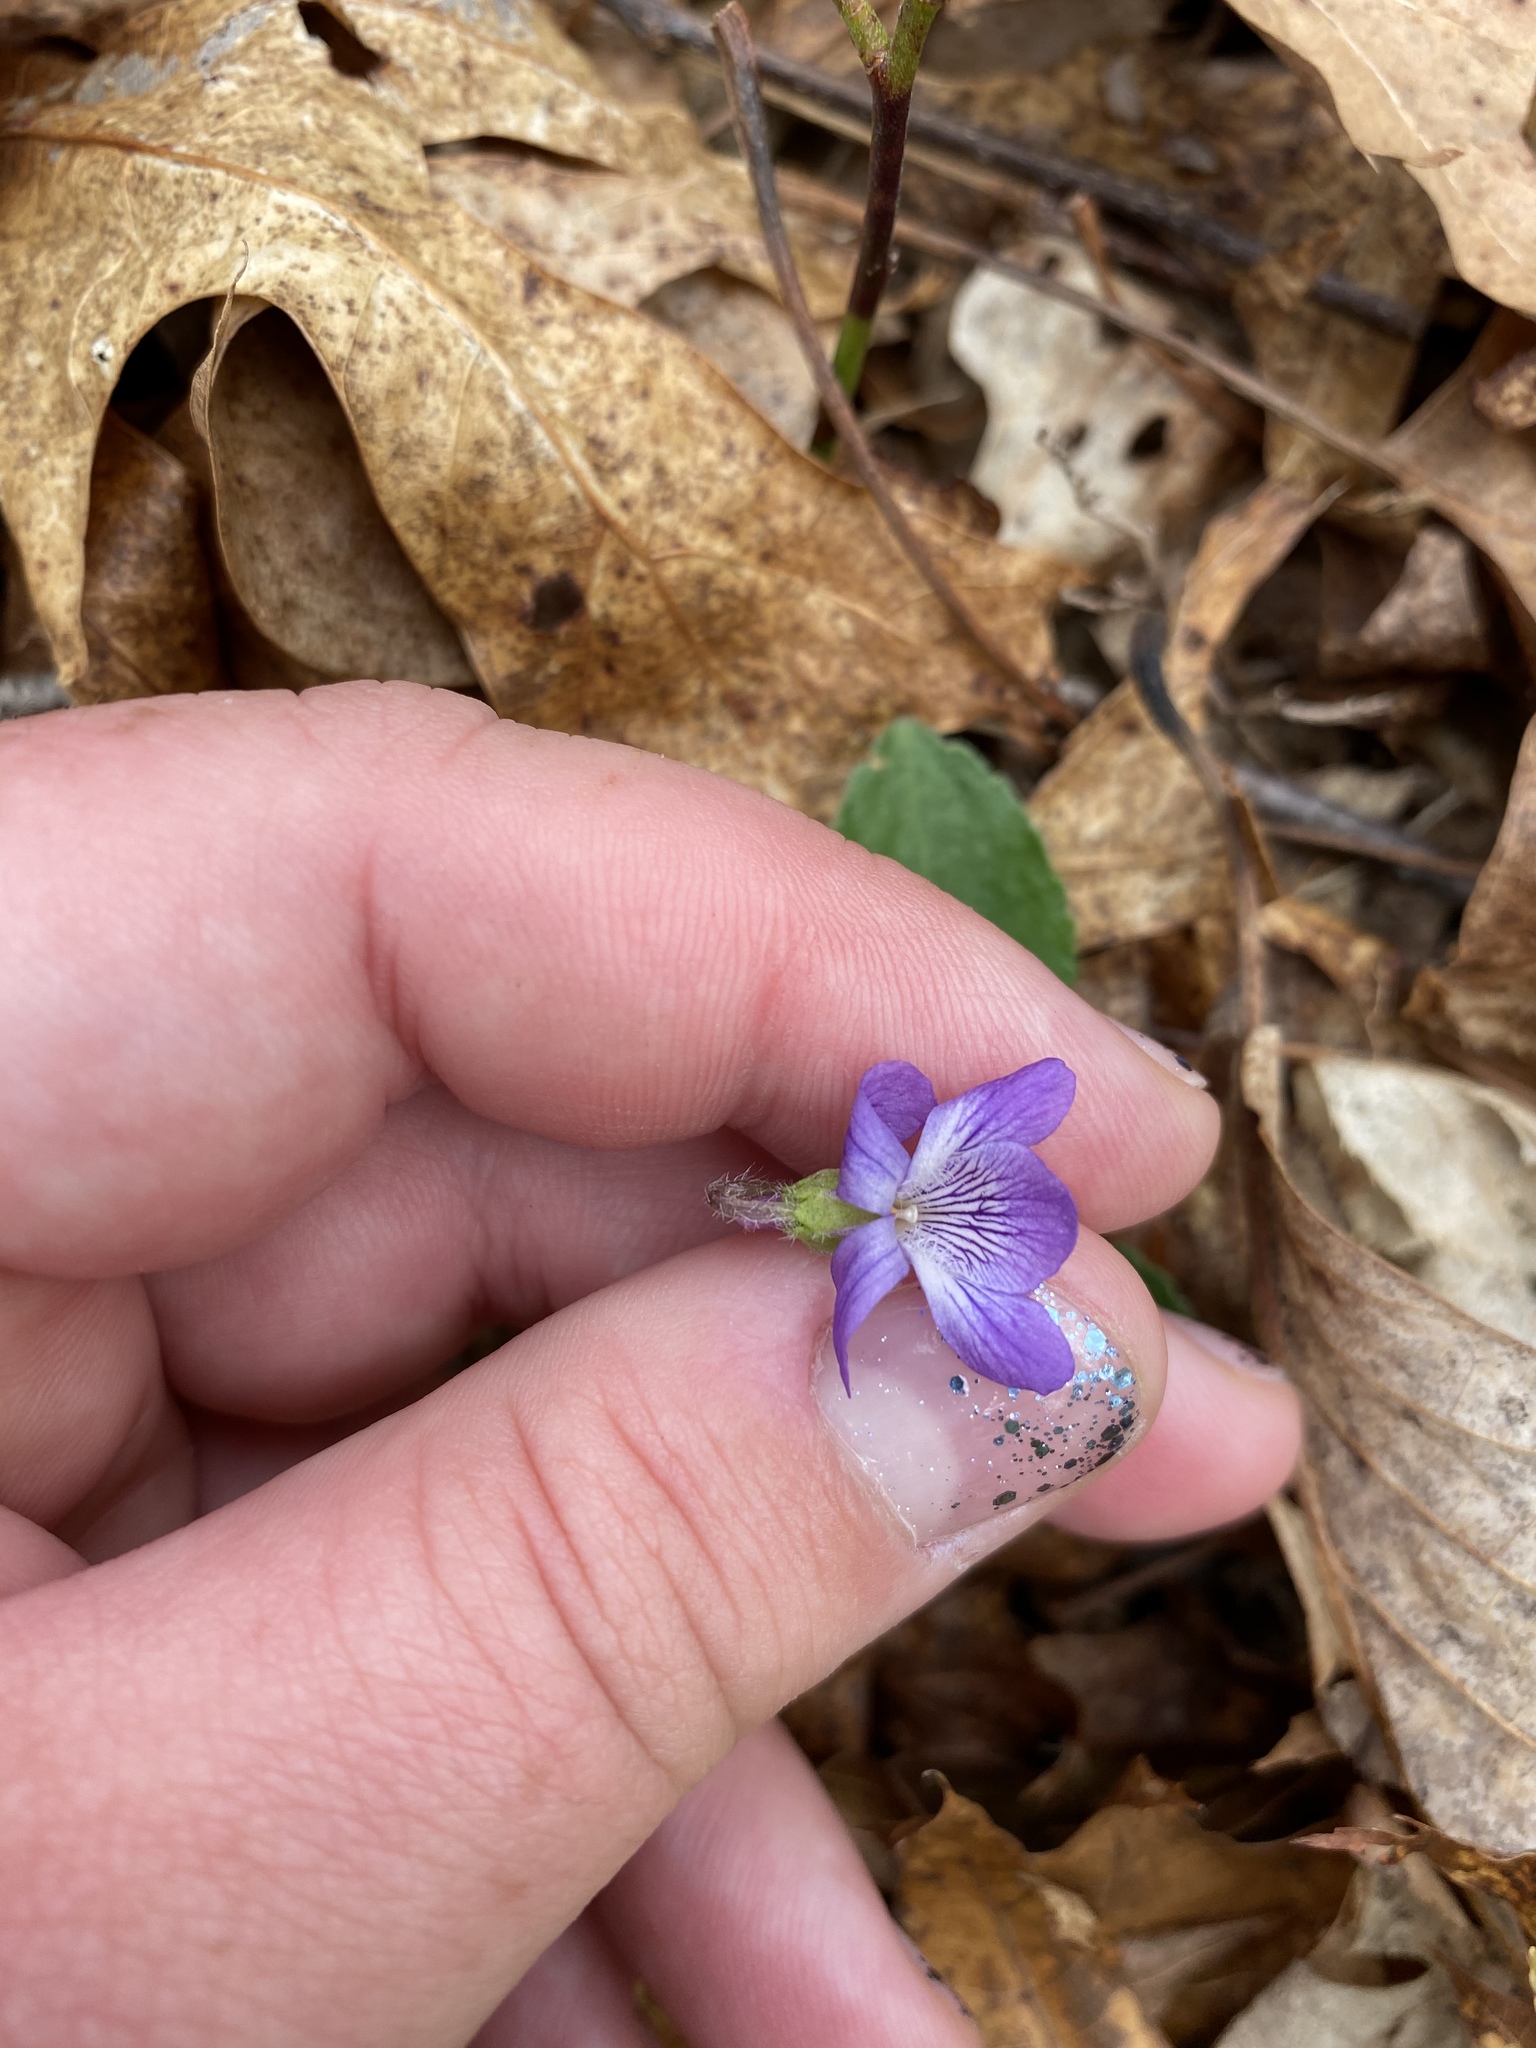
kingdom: Plantae
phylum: Tracheophyta
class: Magnoliopsida
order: Malpighiales
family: Violaceae
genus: Viola
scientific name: Viola fimbriatula
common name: Sand violet
